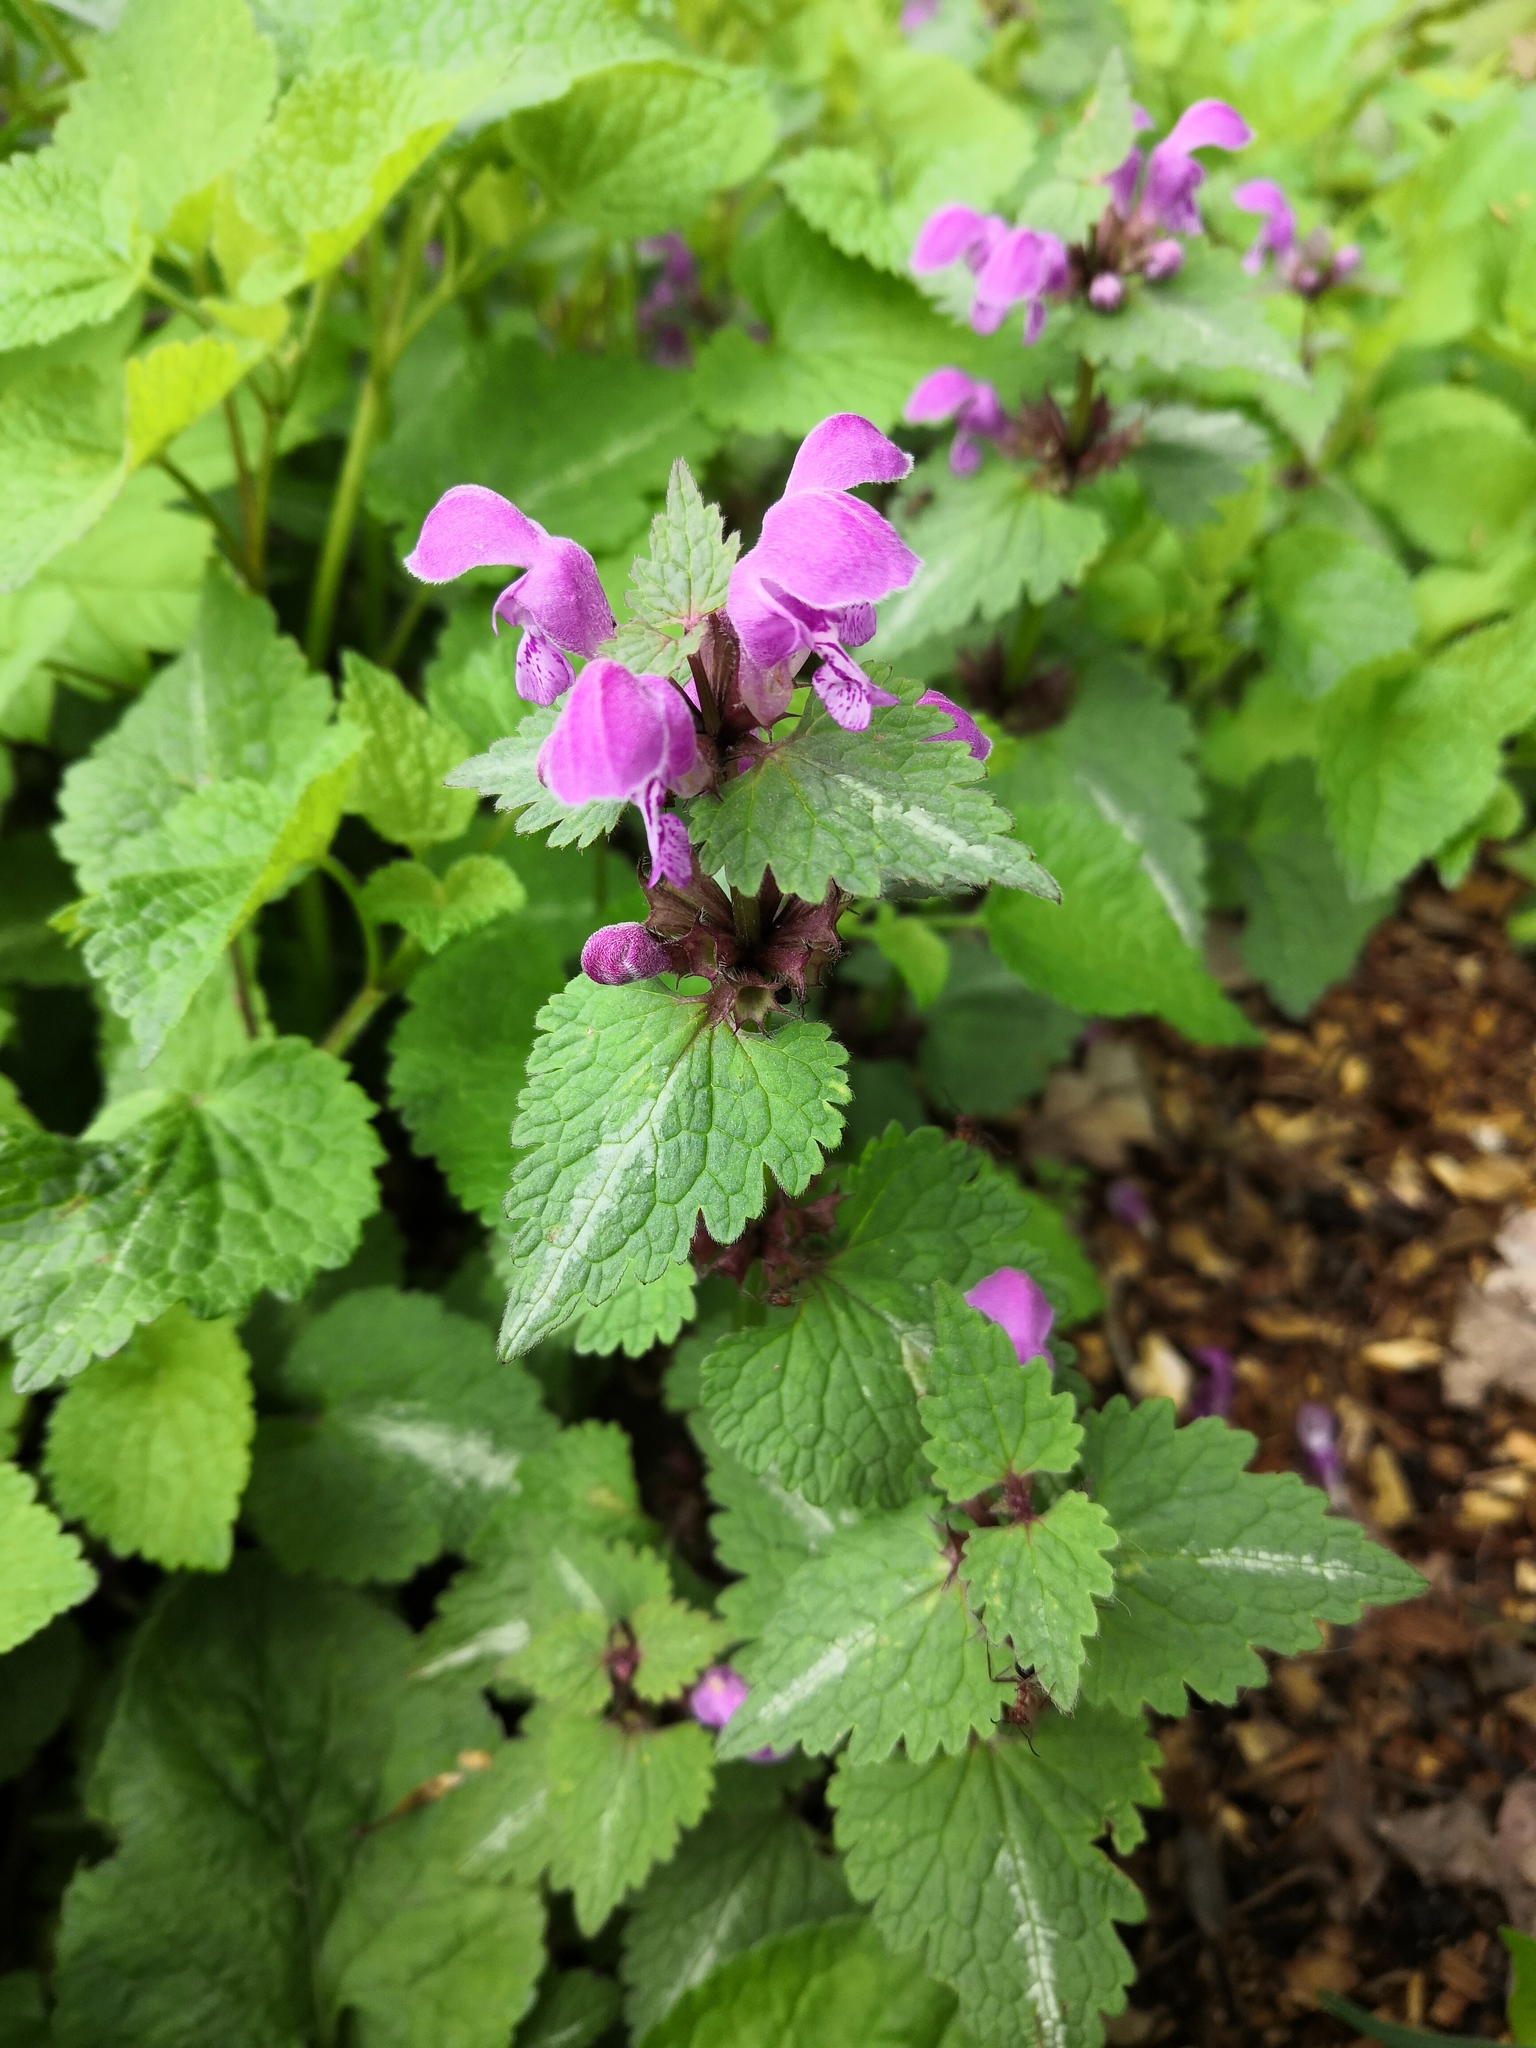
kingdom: Plantae
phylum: Tracheophyta
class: Magnoliopsida
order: Lamiales
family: Lamiaceae
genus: Lamium
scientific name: Lamium maculatum
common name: Spotted dead-nettle
